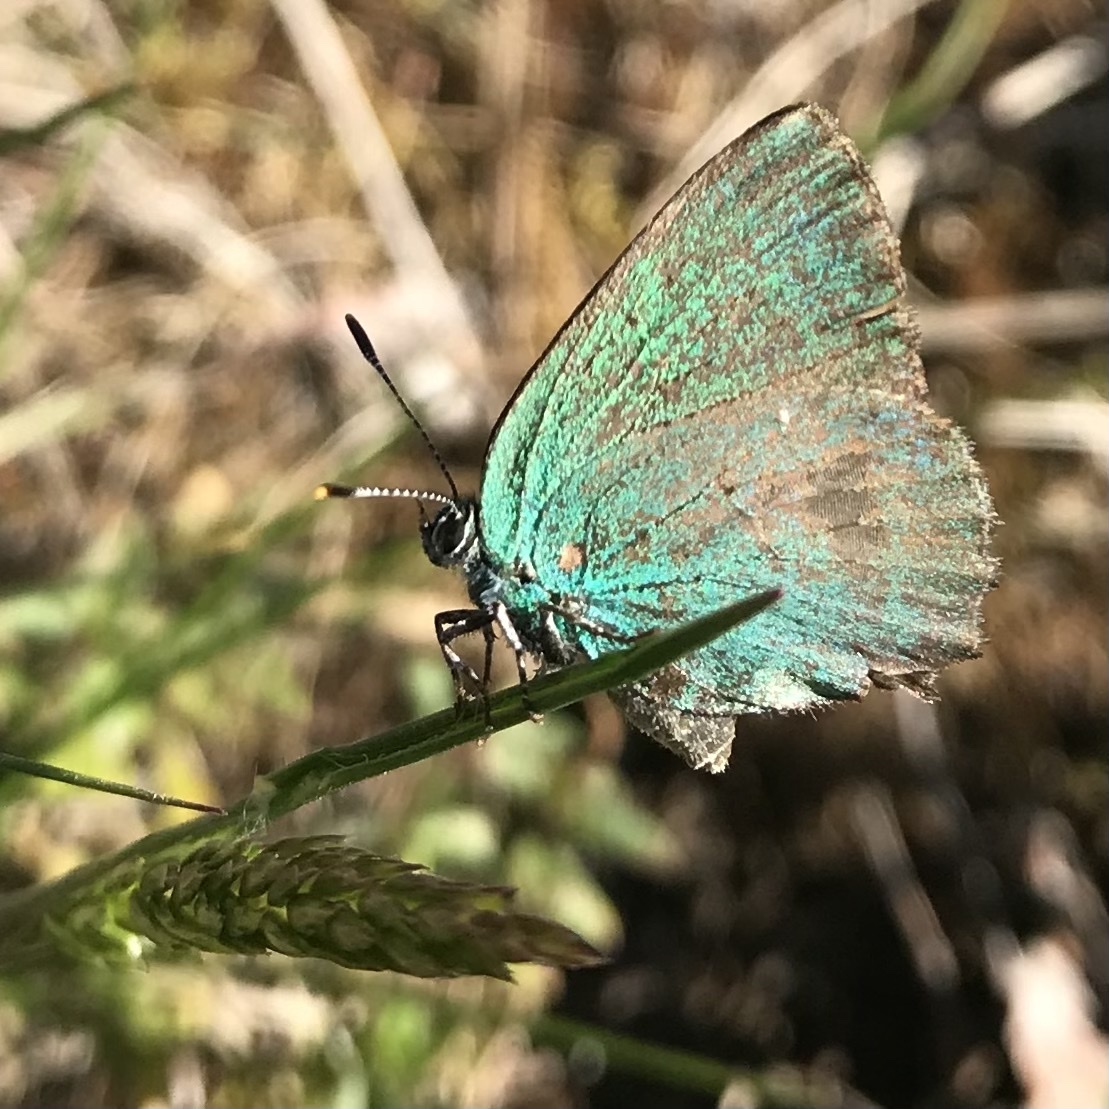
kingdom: Animalia
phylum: Arthropoda
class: Insecta
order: Lepidoptera
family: Lycaenidae
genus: Callophrys
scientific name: Callophrys rubi
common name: Green hairstreak
